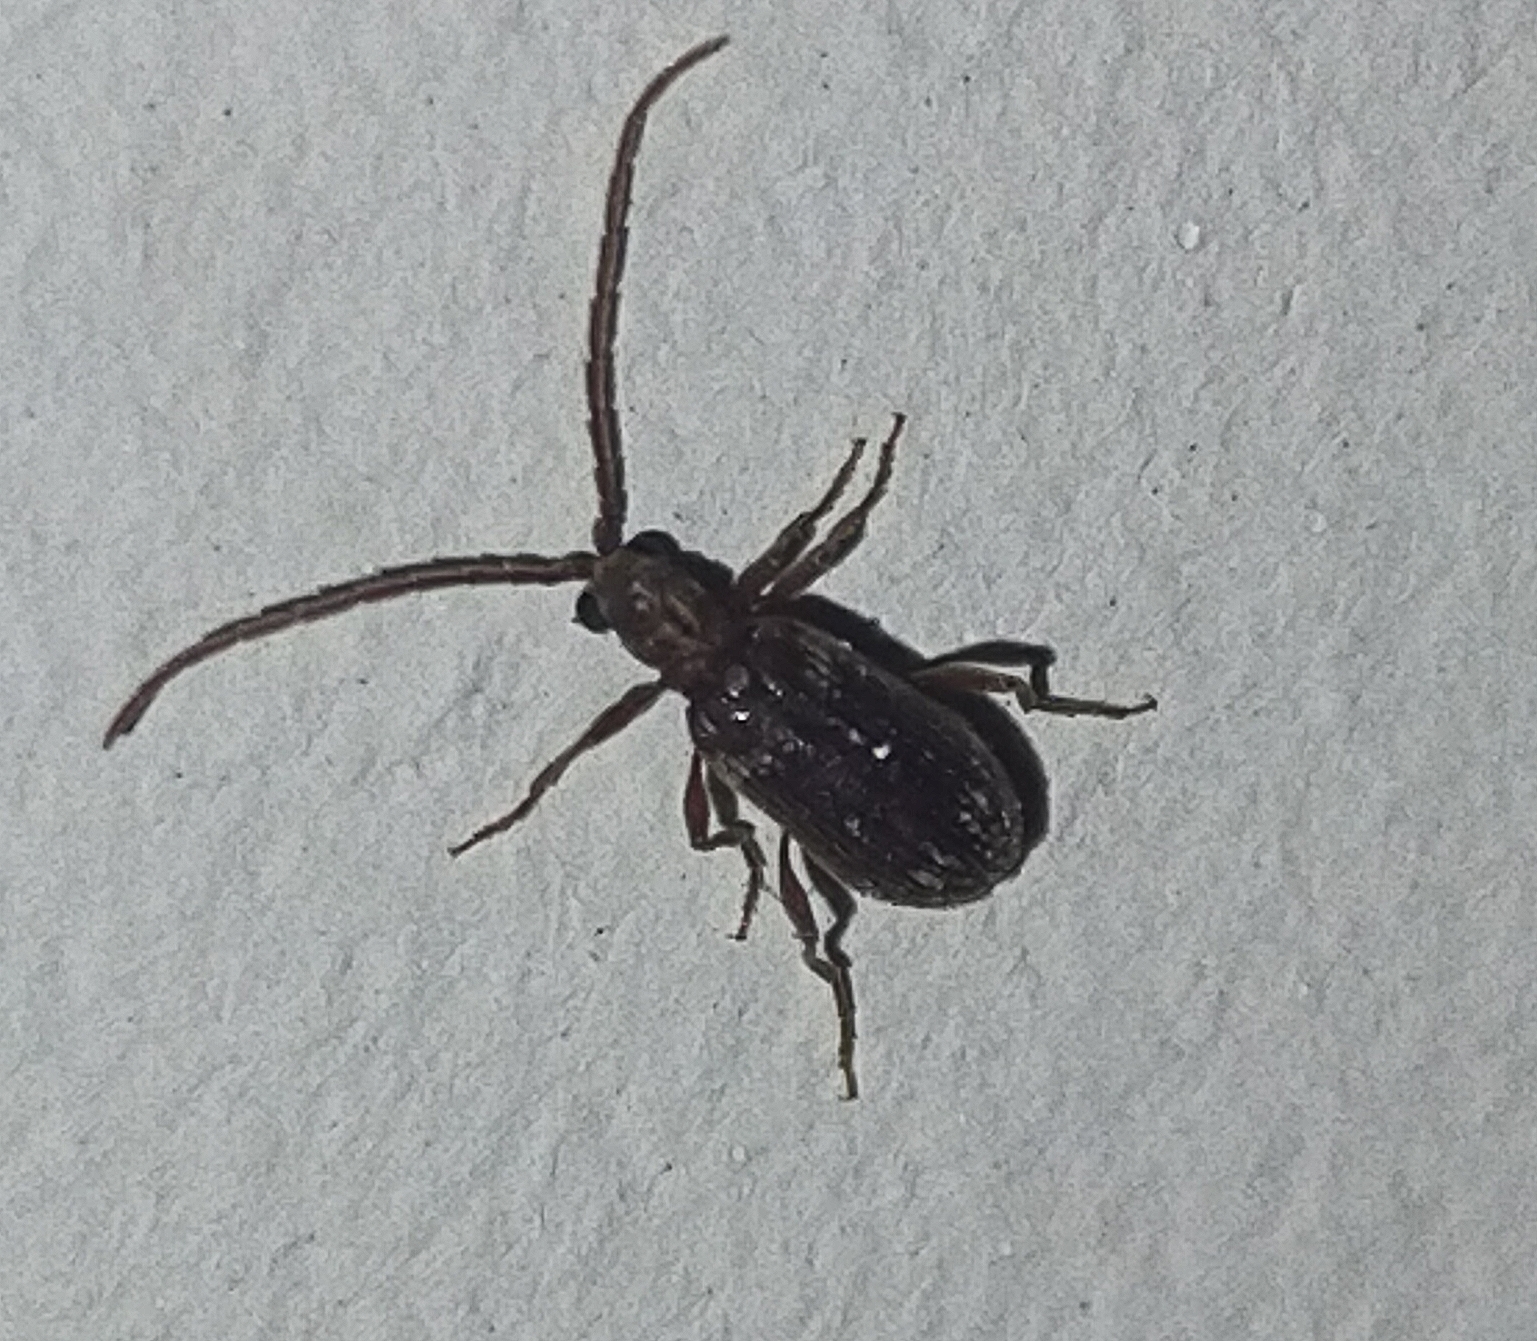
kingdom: Animalia
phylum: Arthropoda
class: Insecta
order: Coleoptera
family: Ptinidae
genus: Ptinus
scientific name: Ptinus fur
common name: White-marked spider beetle
